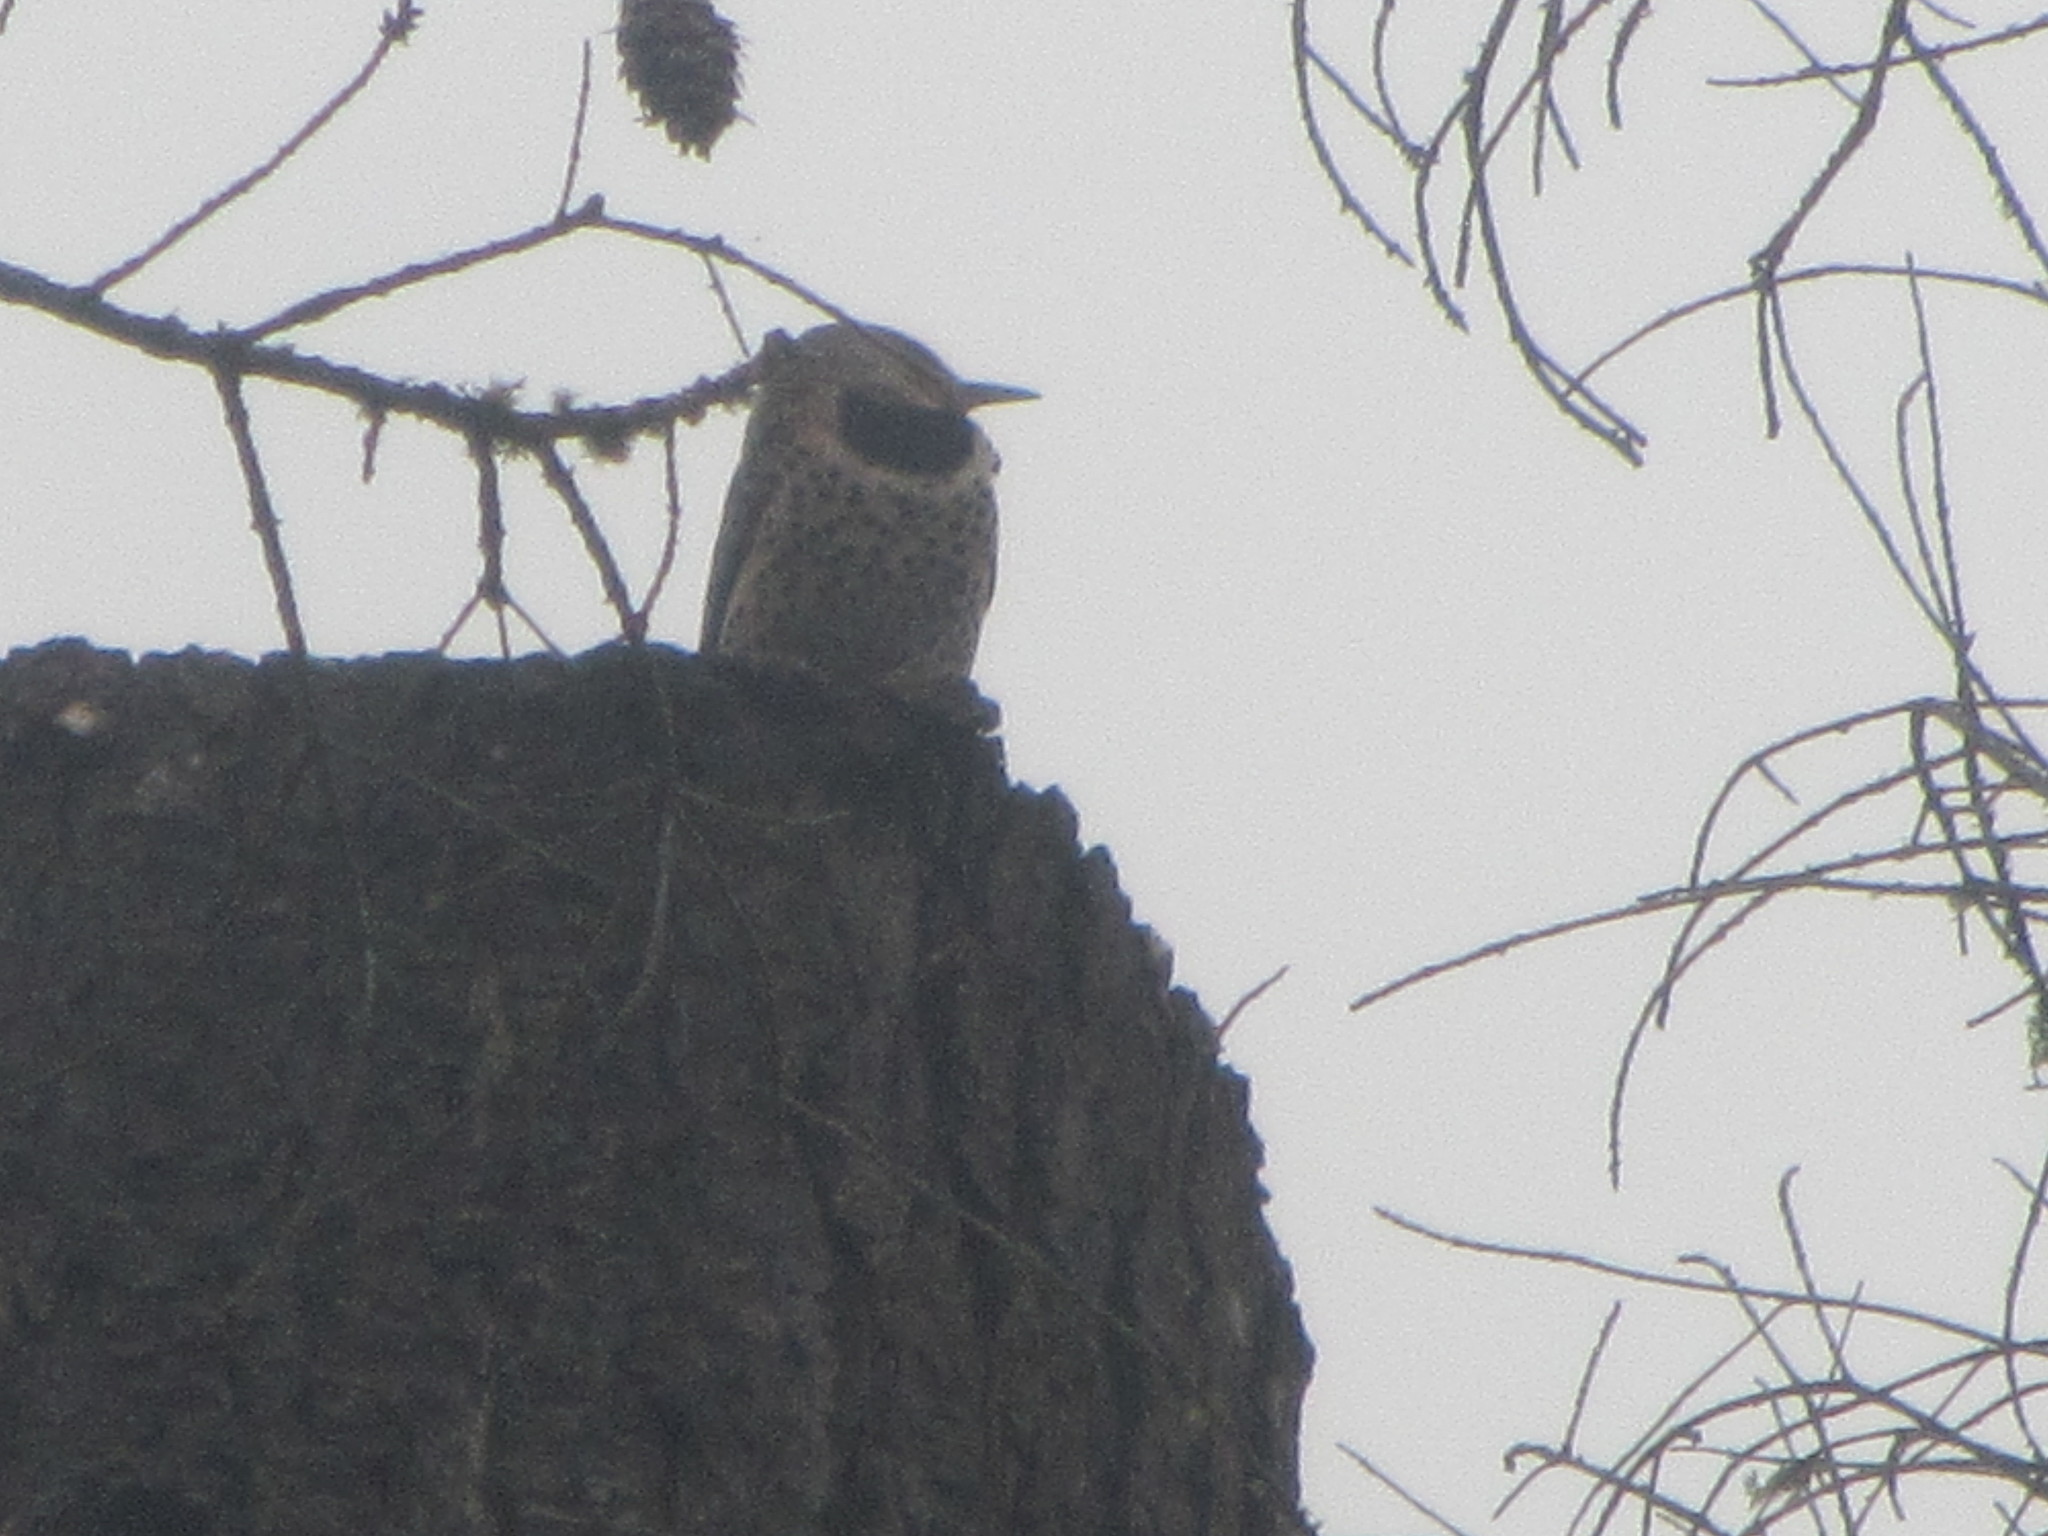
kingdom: Animalia
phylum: Chordata
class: Aves
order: Piciformes
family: Picidae
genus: Colaptes
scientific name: Colaptes auratus
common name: Northern flicker
